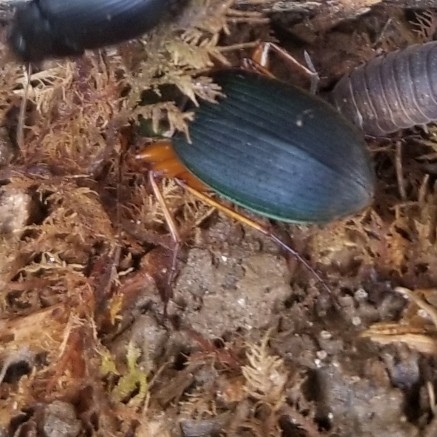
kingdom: Animalia
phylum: Arthropoda
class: Insecta
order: Coleoptera
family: Carabidae
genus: Galerita
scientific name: Galerita bicolor
